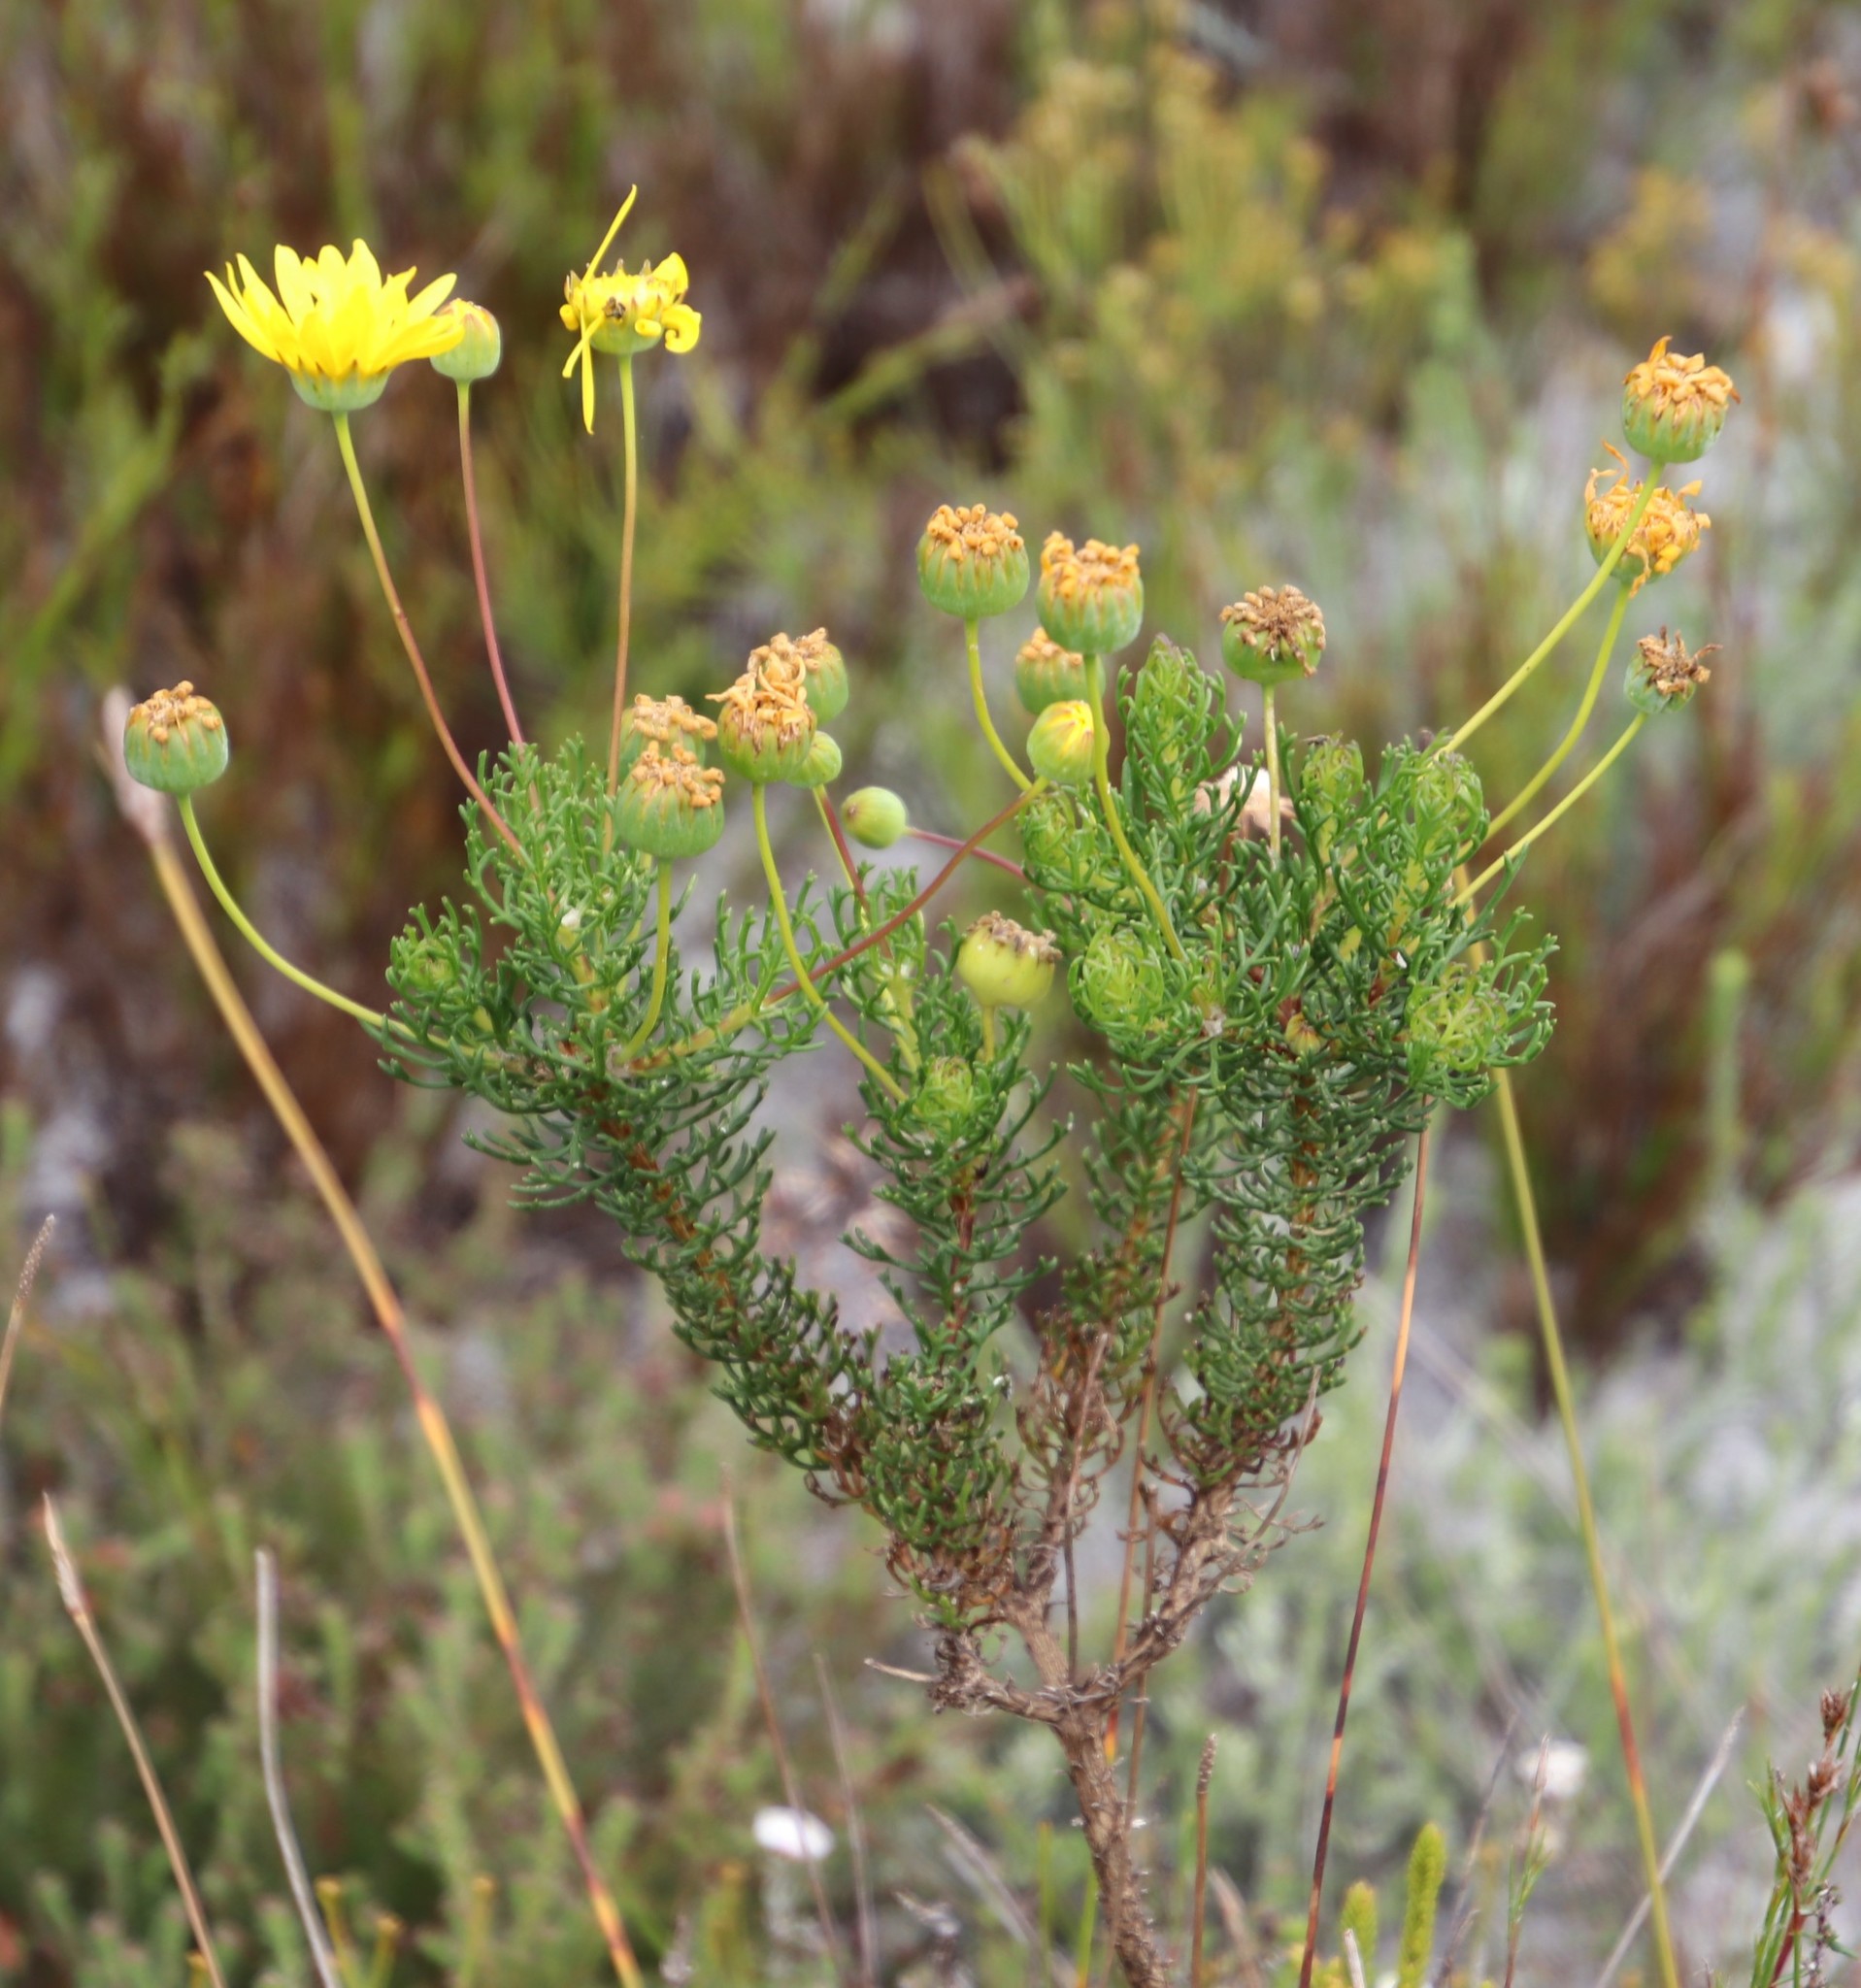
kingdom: Plantae
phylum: Tracheophyta
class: Magnoliopsida
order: Asterales
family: Asteraceae
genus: Euryops
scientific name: Euryops abrotanifolius
